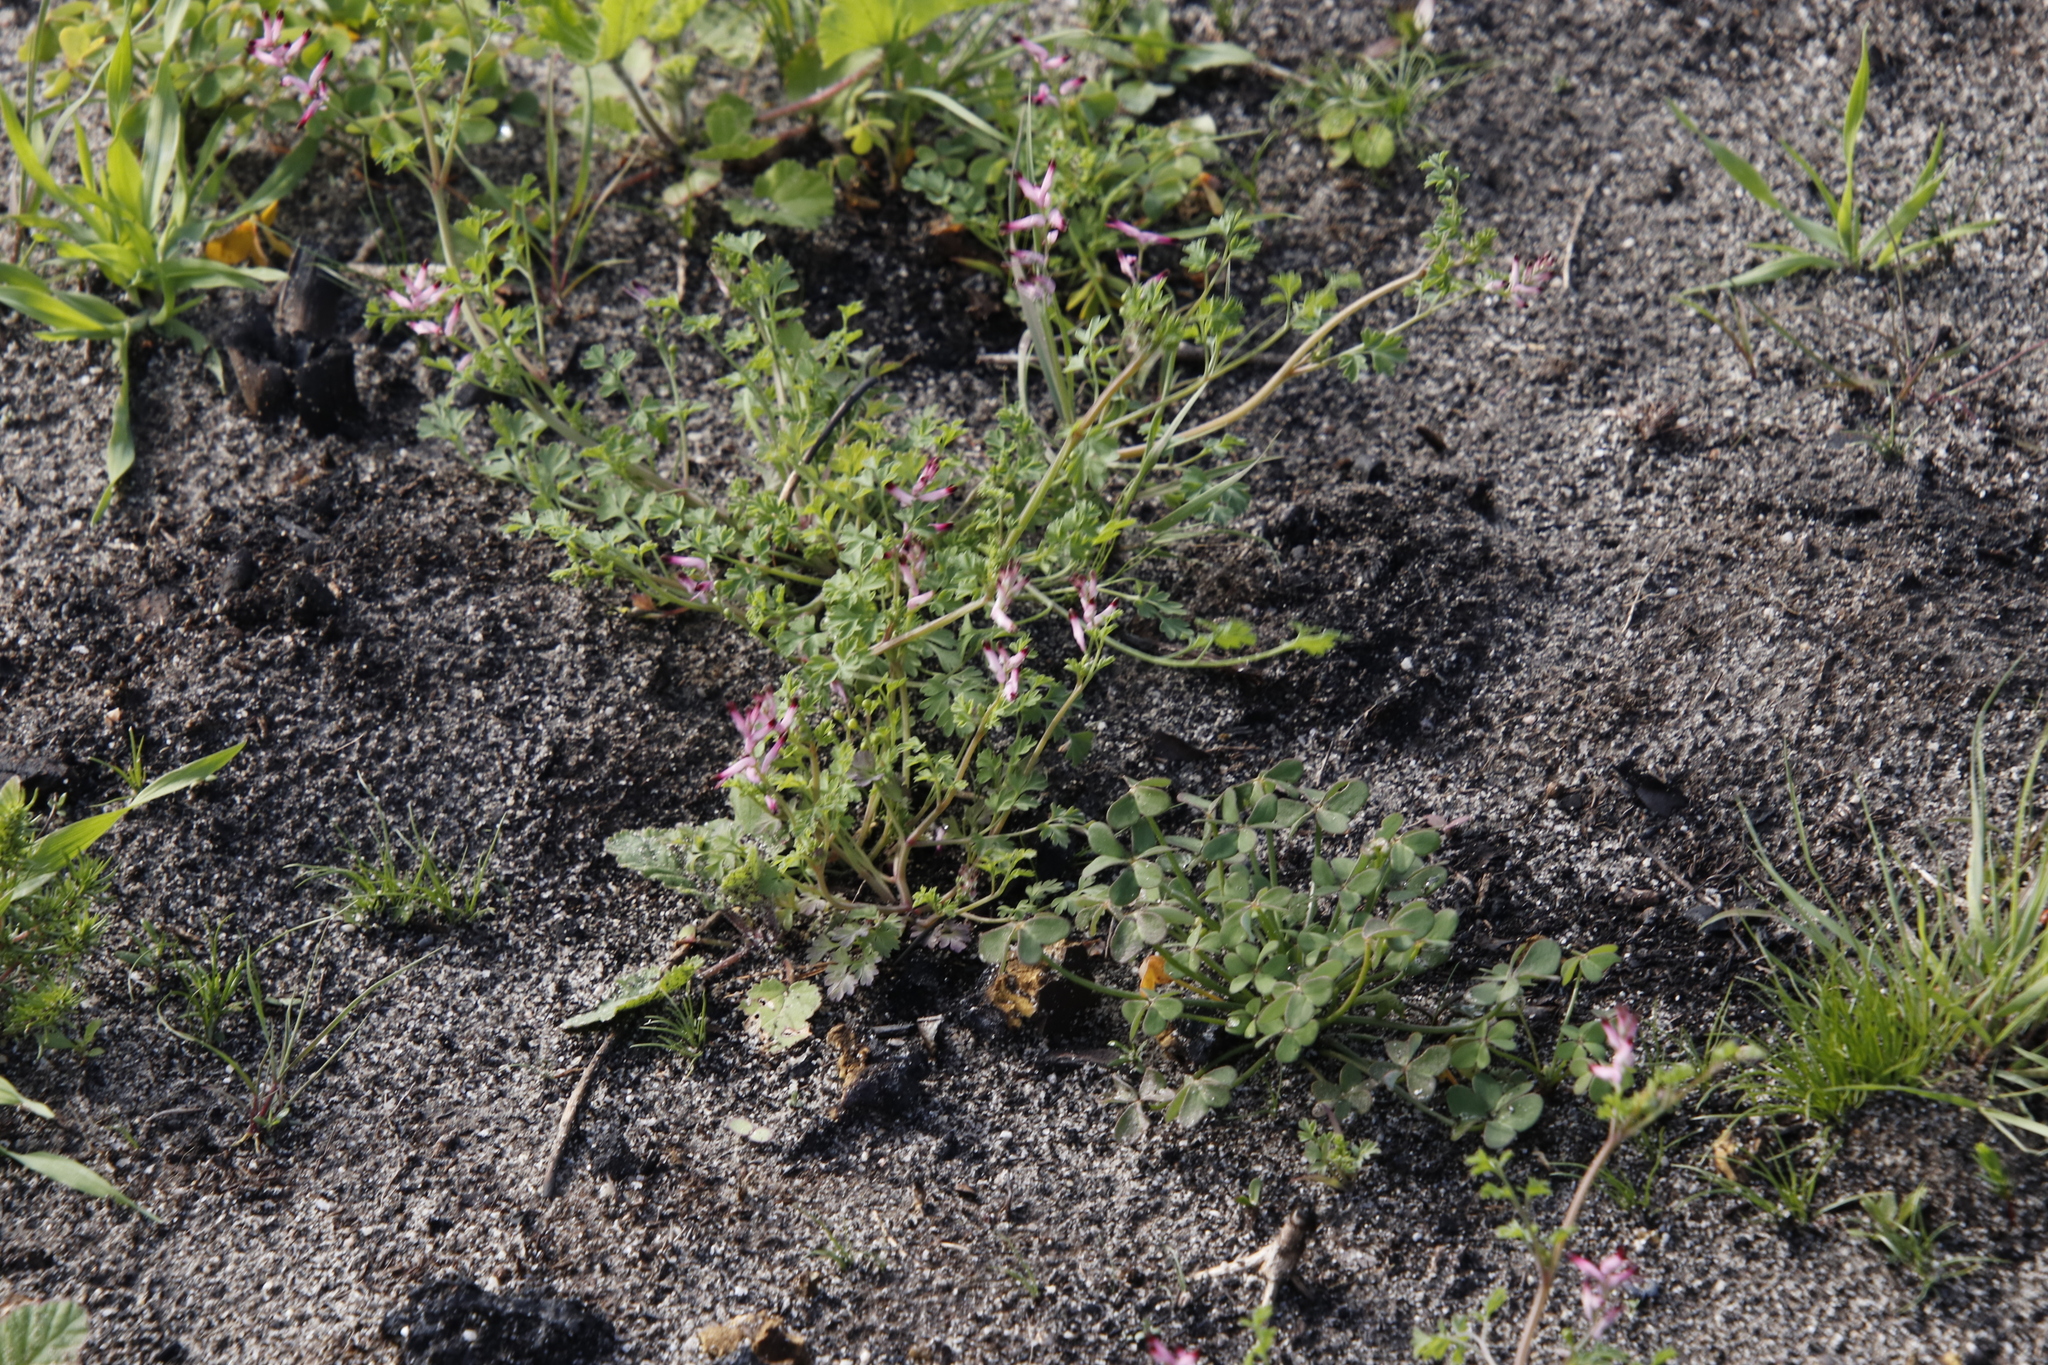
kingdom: Plantae
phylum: Tracheophyta
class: Magnoliopsida
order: Oxalidales
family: Oxalidaceae
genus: Oxalis
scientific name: Oxalis pes-caprae
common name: Bermuda-buttercup
